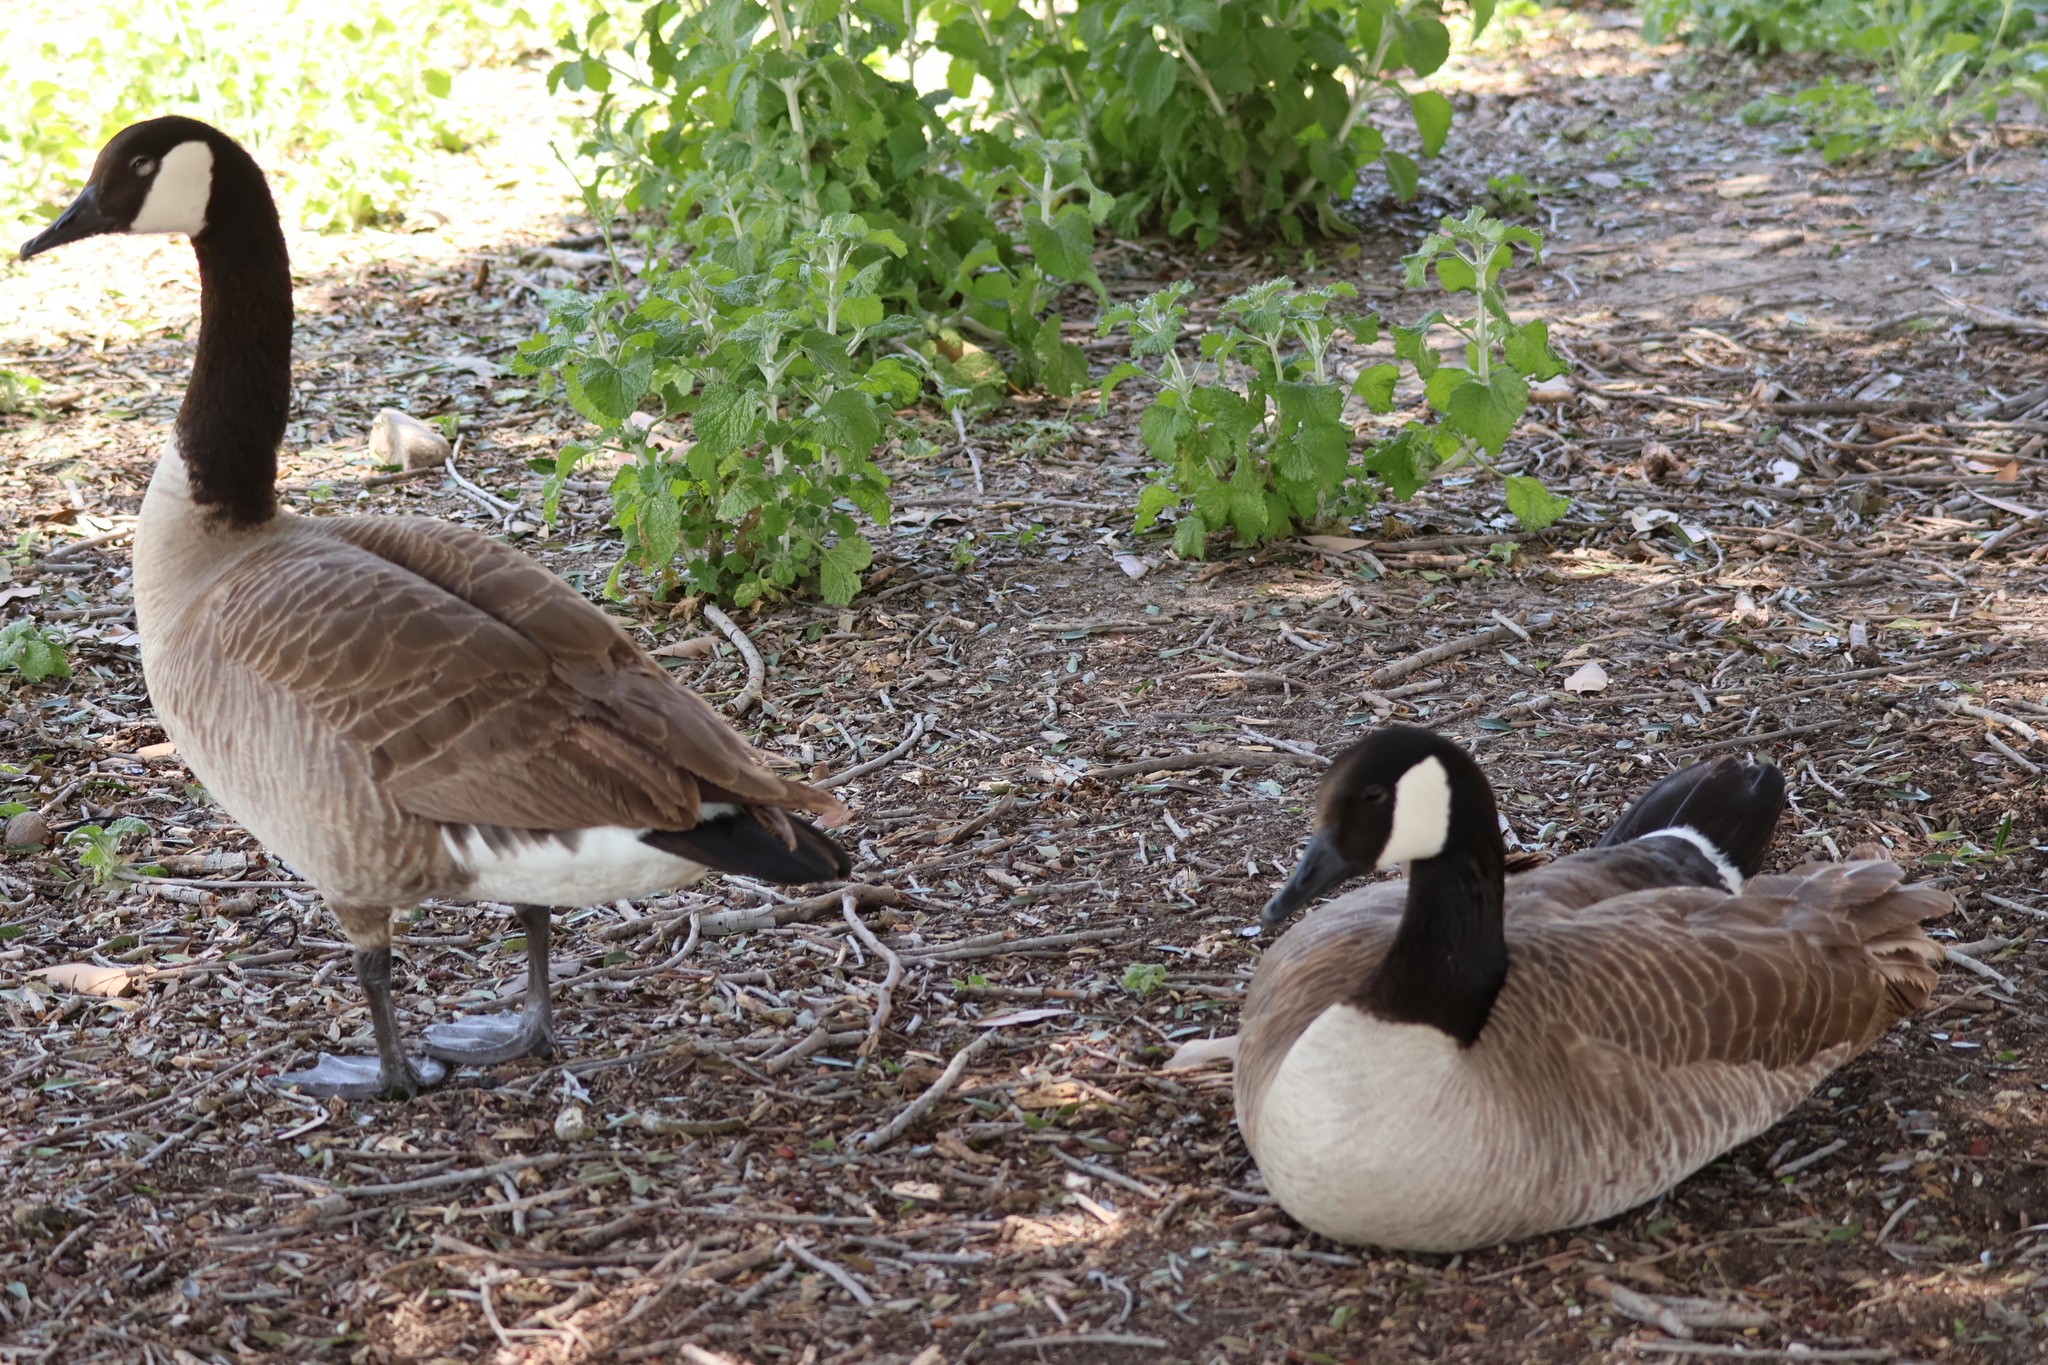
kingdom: Animalia
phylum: Chordata
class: Aves
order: Anseriformes
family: Anatidae
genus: Branta
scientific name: Branta canadensis
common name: Canada goose
